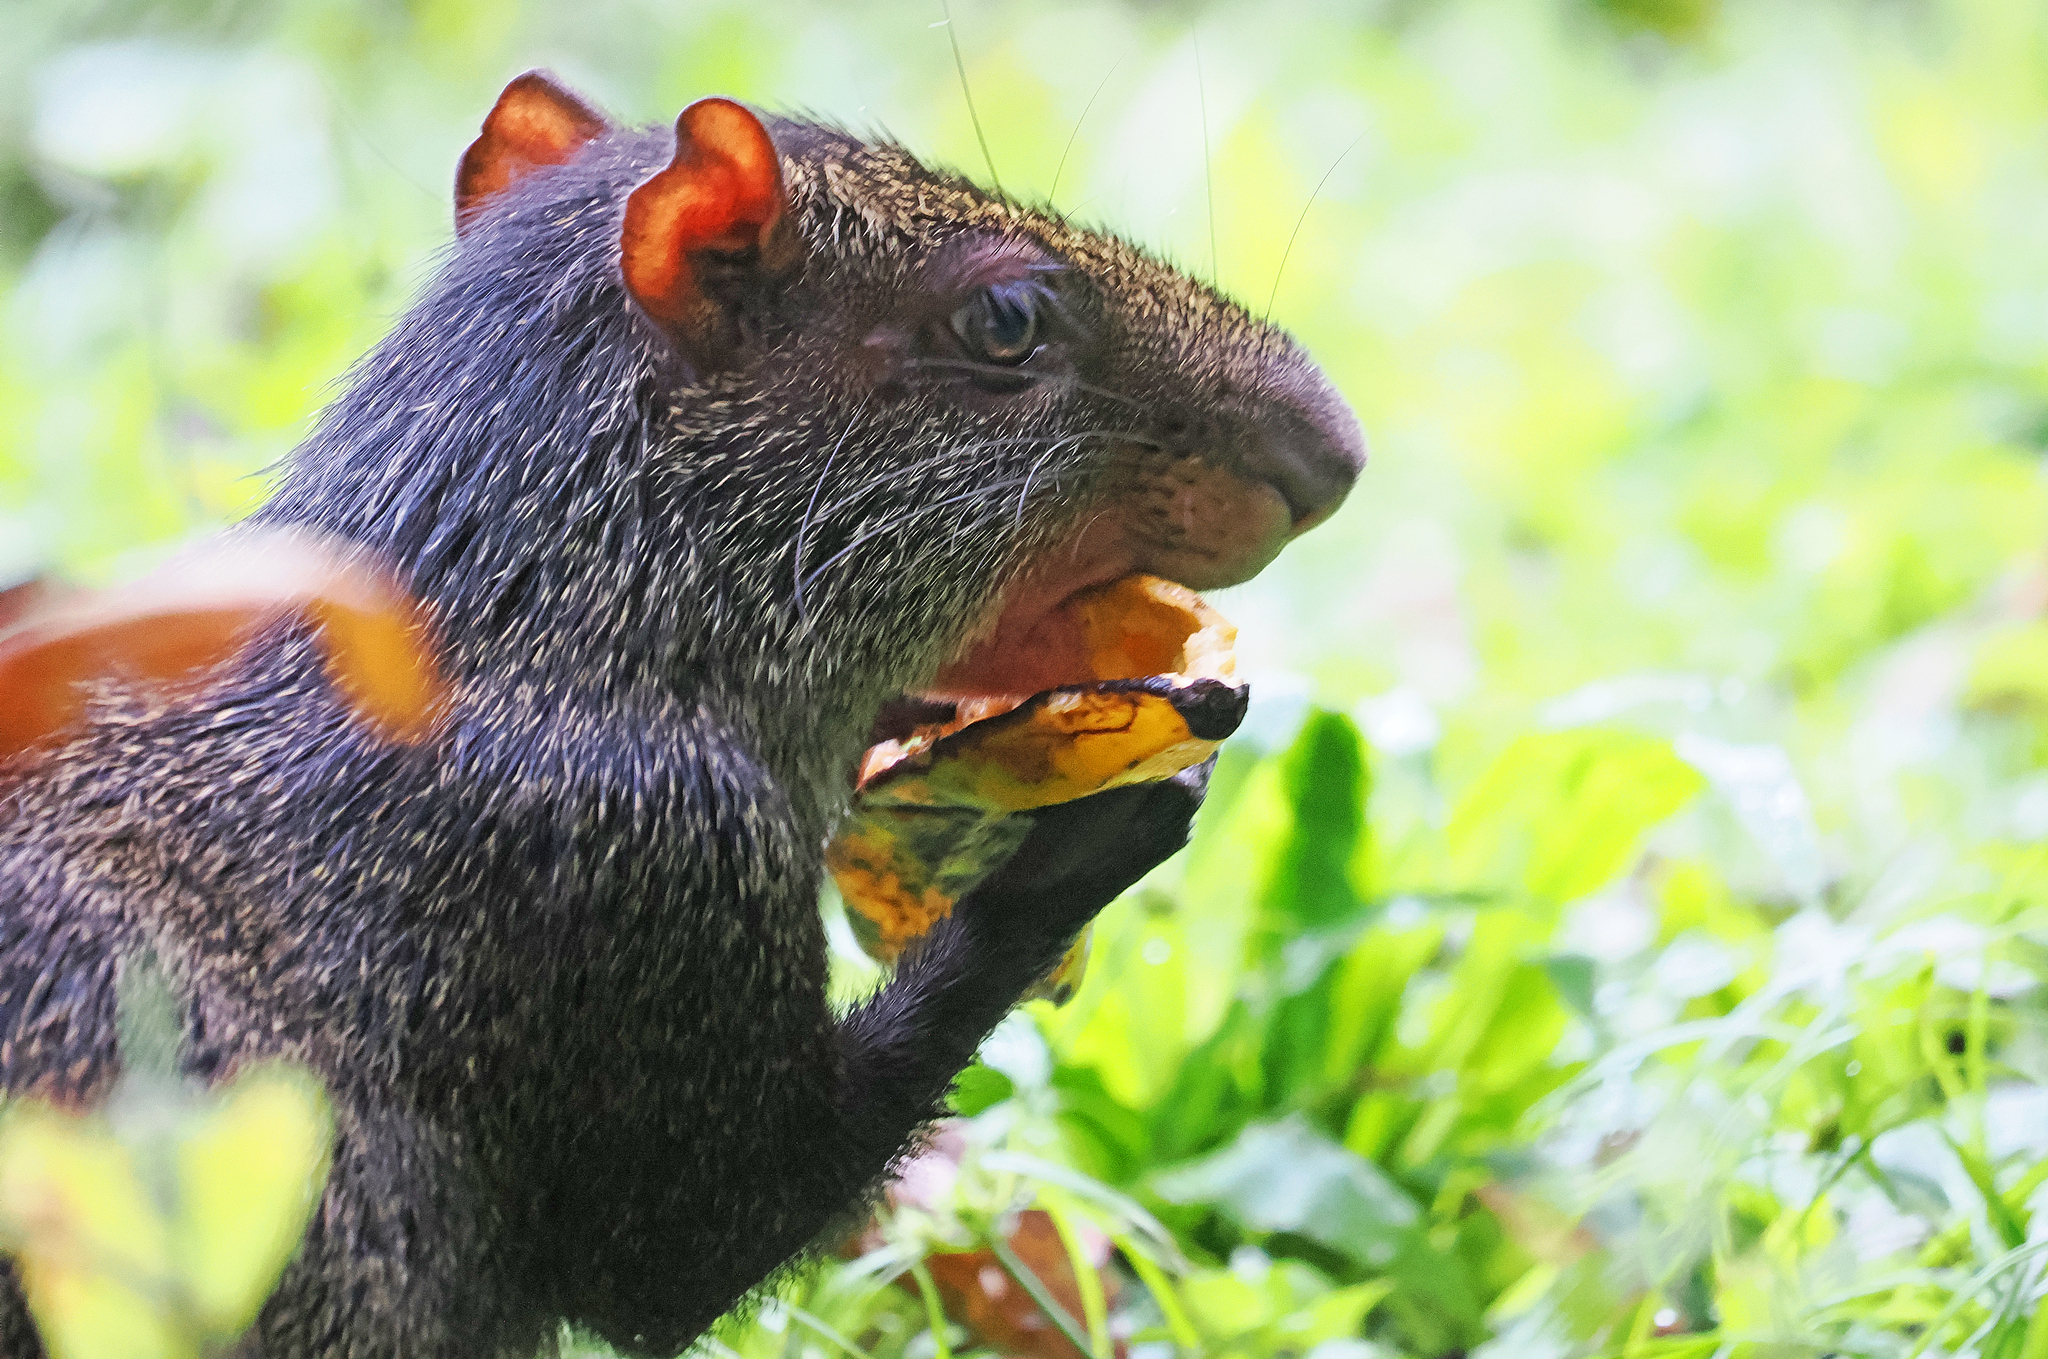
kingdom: Animalia
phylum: Chordata
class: Mammalia
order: Rodentia
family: Dasyproctidae
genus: Dasyprocta
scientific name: Dasyprocta punctata
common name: Central american agouti
